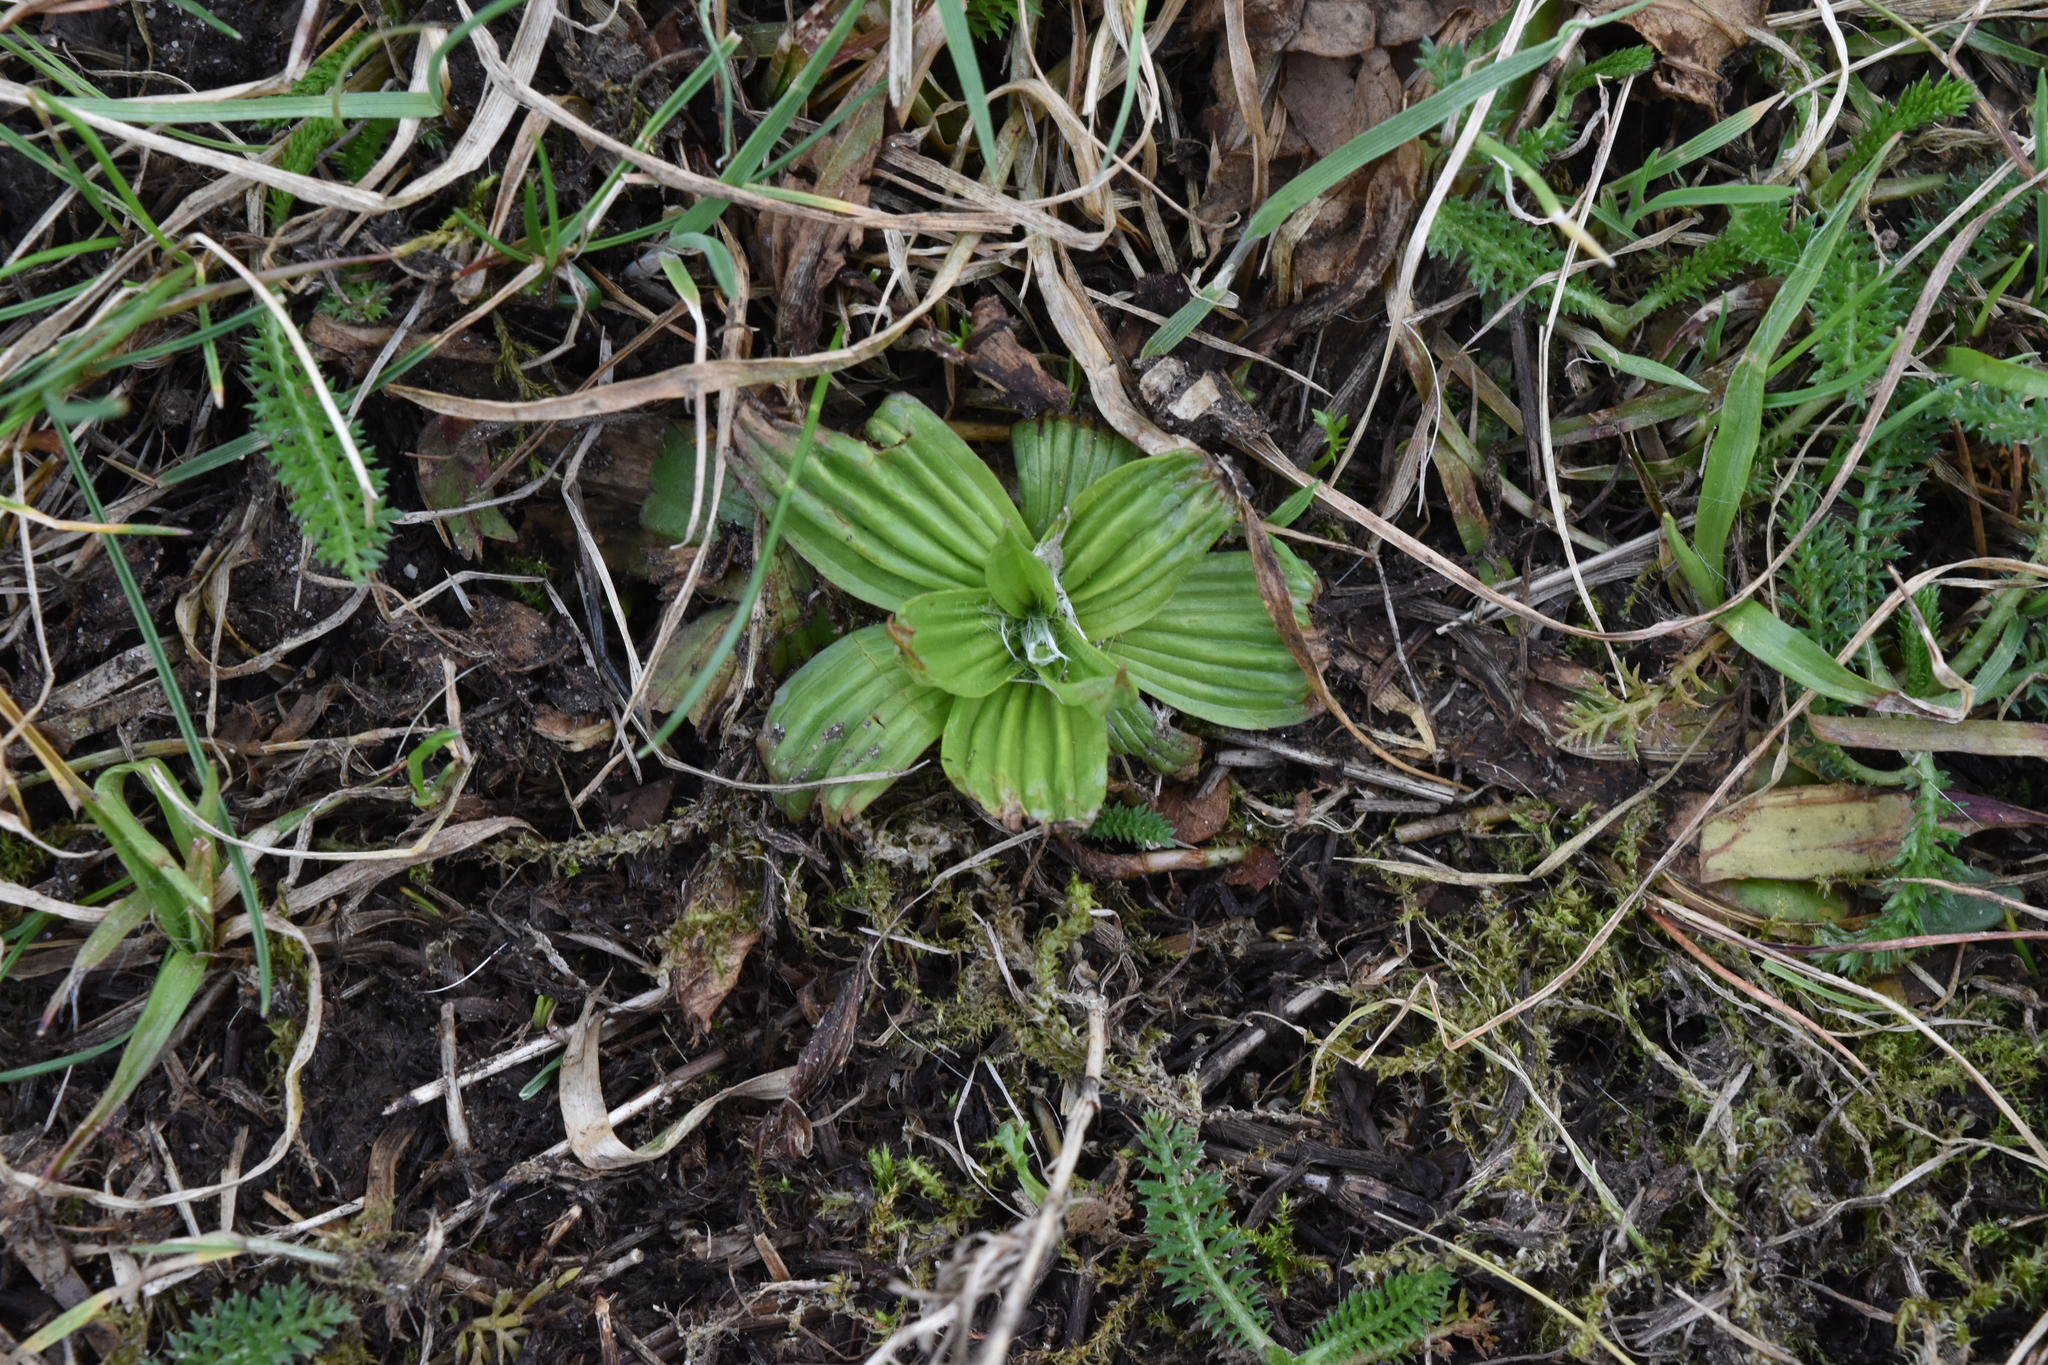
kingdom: Plantae
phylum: Tracheophyta
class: Magnoliopsida
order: Lamiales
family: Plantaginaceae
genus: Plantago
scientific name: Plantago lanceolata
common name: Ribwort plantain
